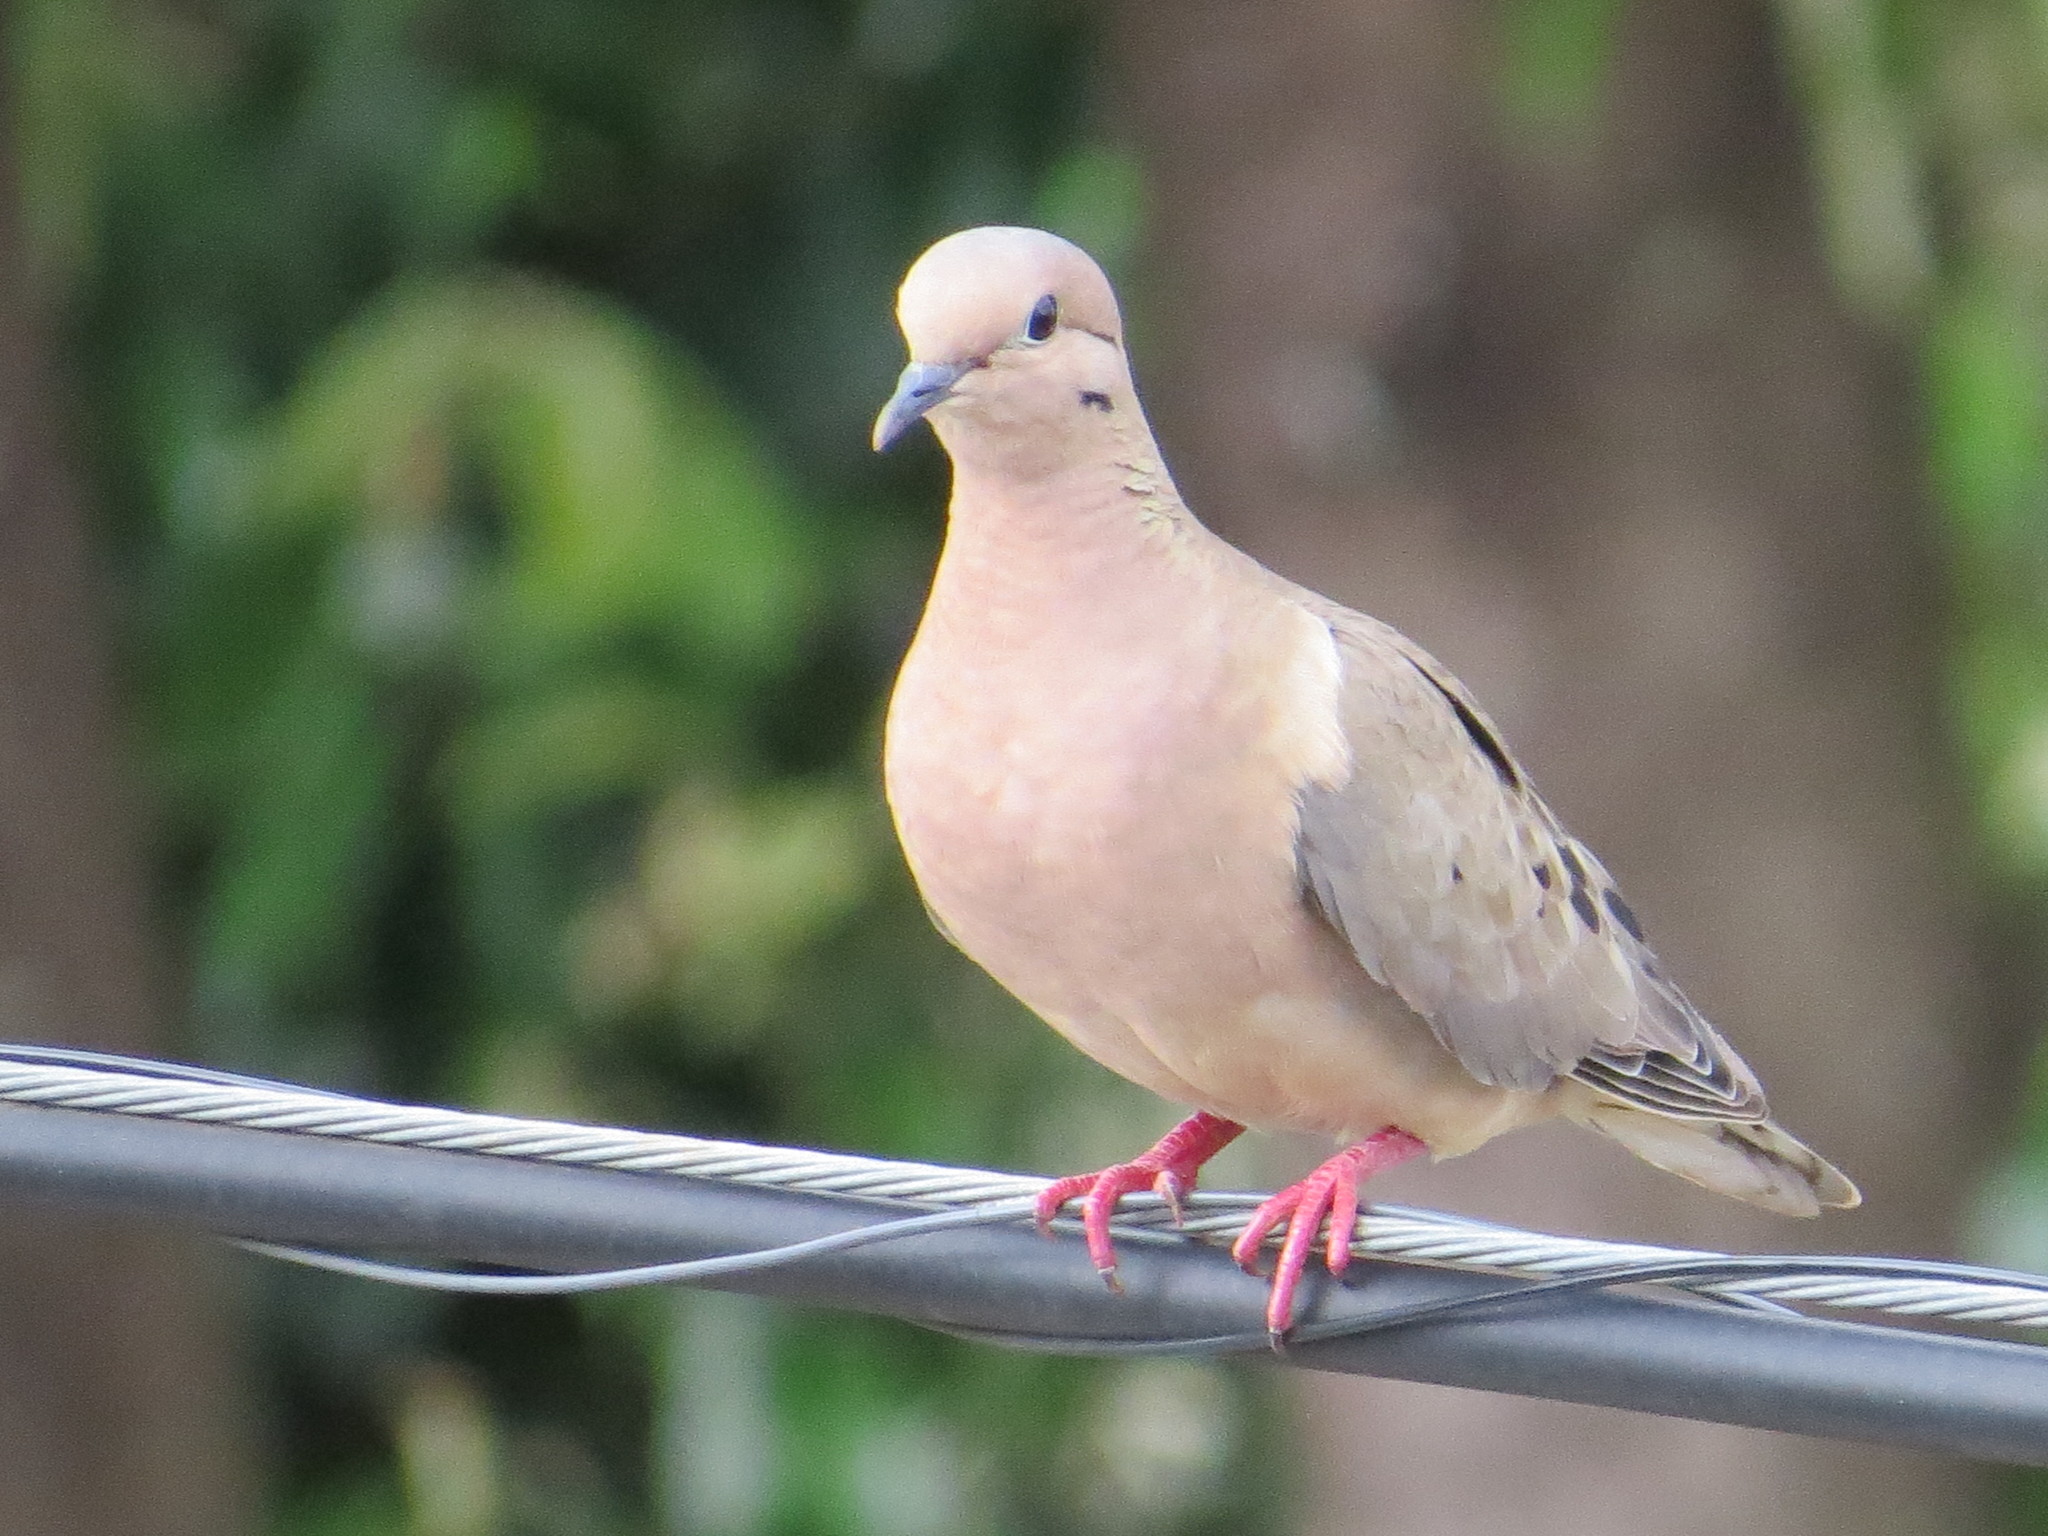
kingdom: Animalia
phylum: Chordata
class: Aves
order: Columbiformes
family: Columbidae
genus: Zenaida
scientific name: Zenaida auriculata
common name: Eared dove
